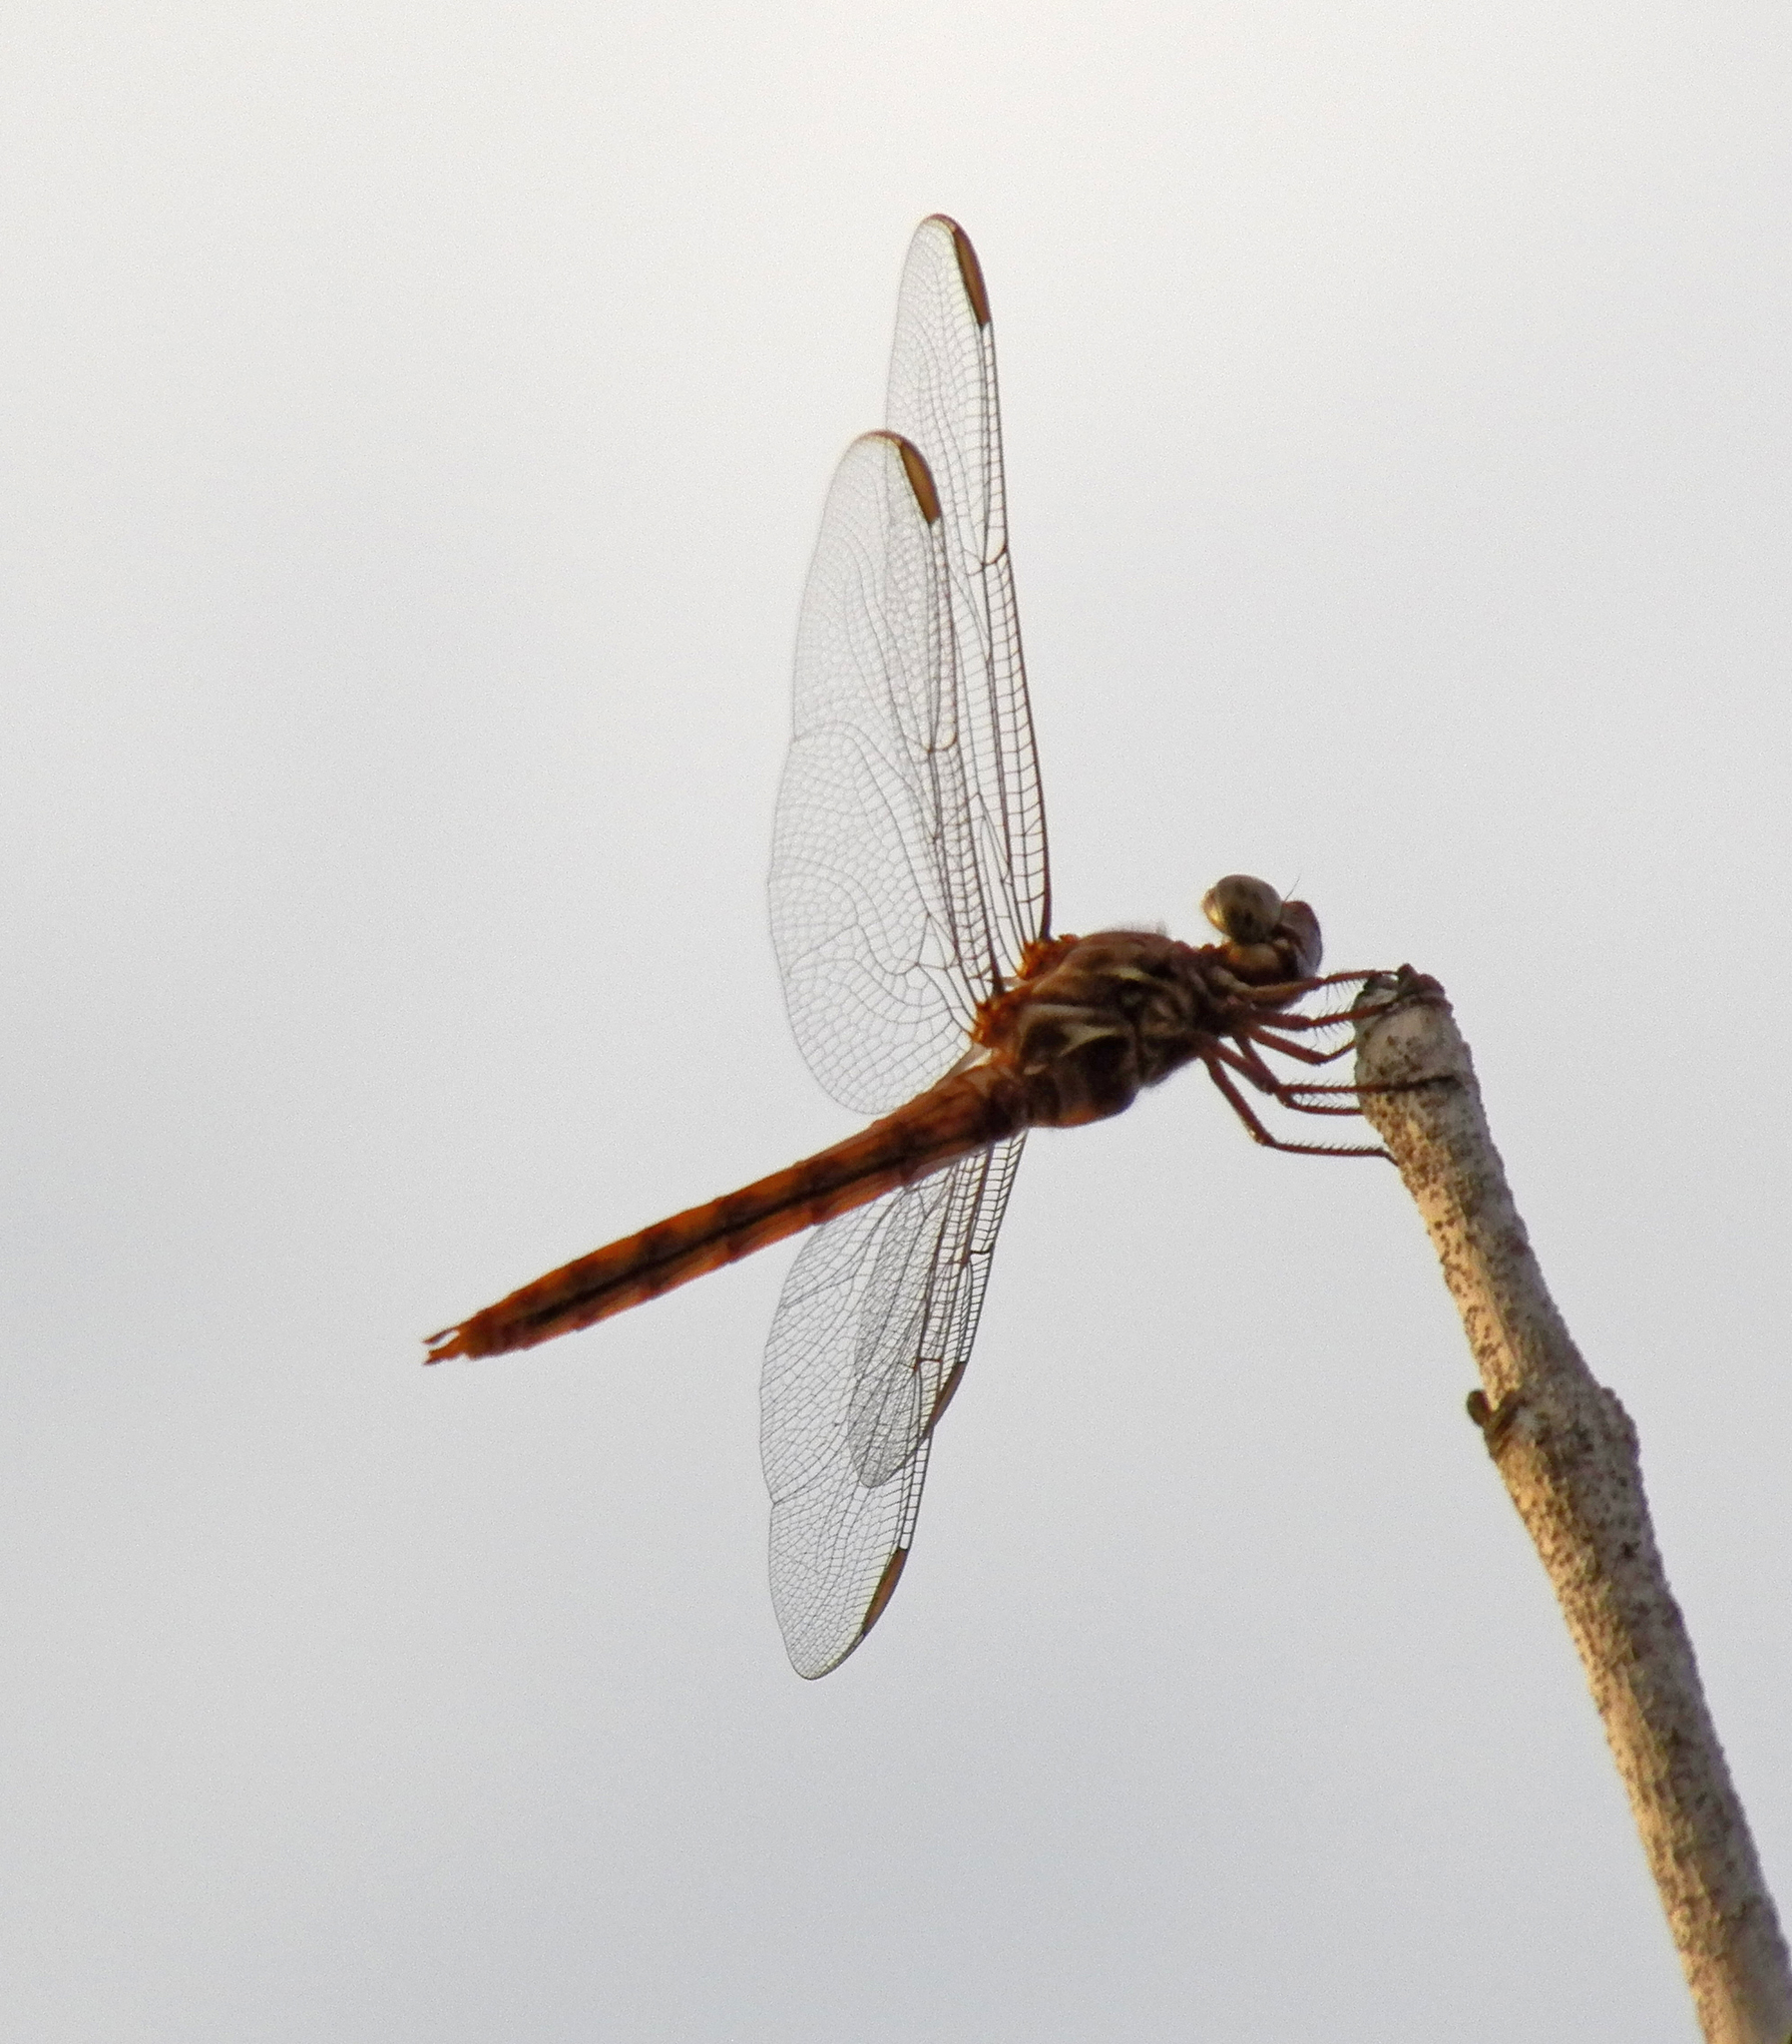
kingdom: Animalia
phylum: Arthropoda
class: Insecta
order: Odonata
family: Libellulidae
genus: Orthemis
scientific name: Orthemis ferruginea
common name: Roseate skimmer
